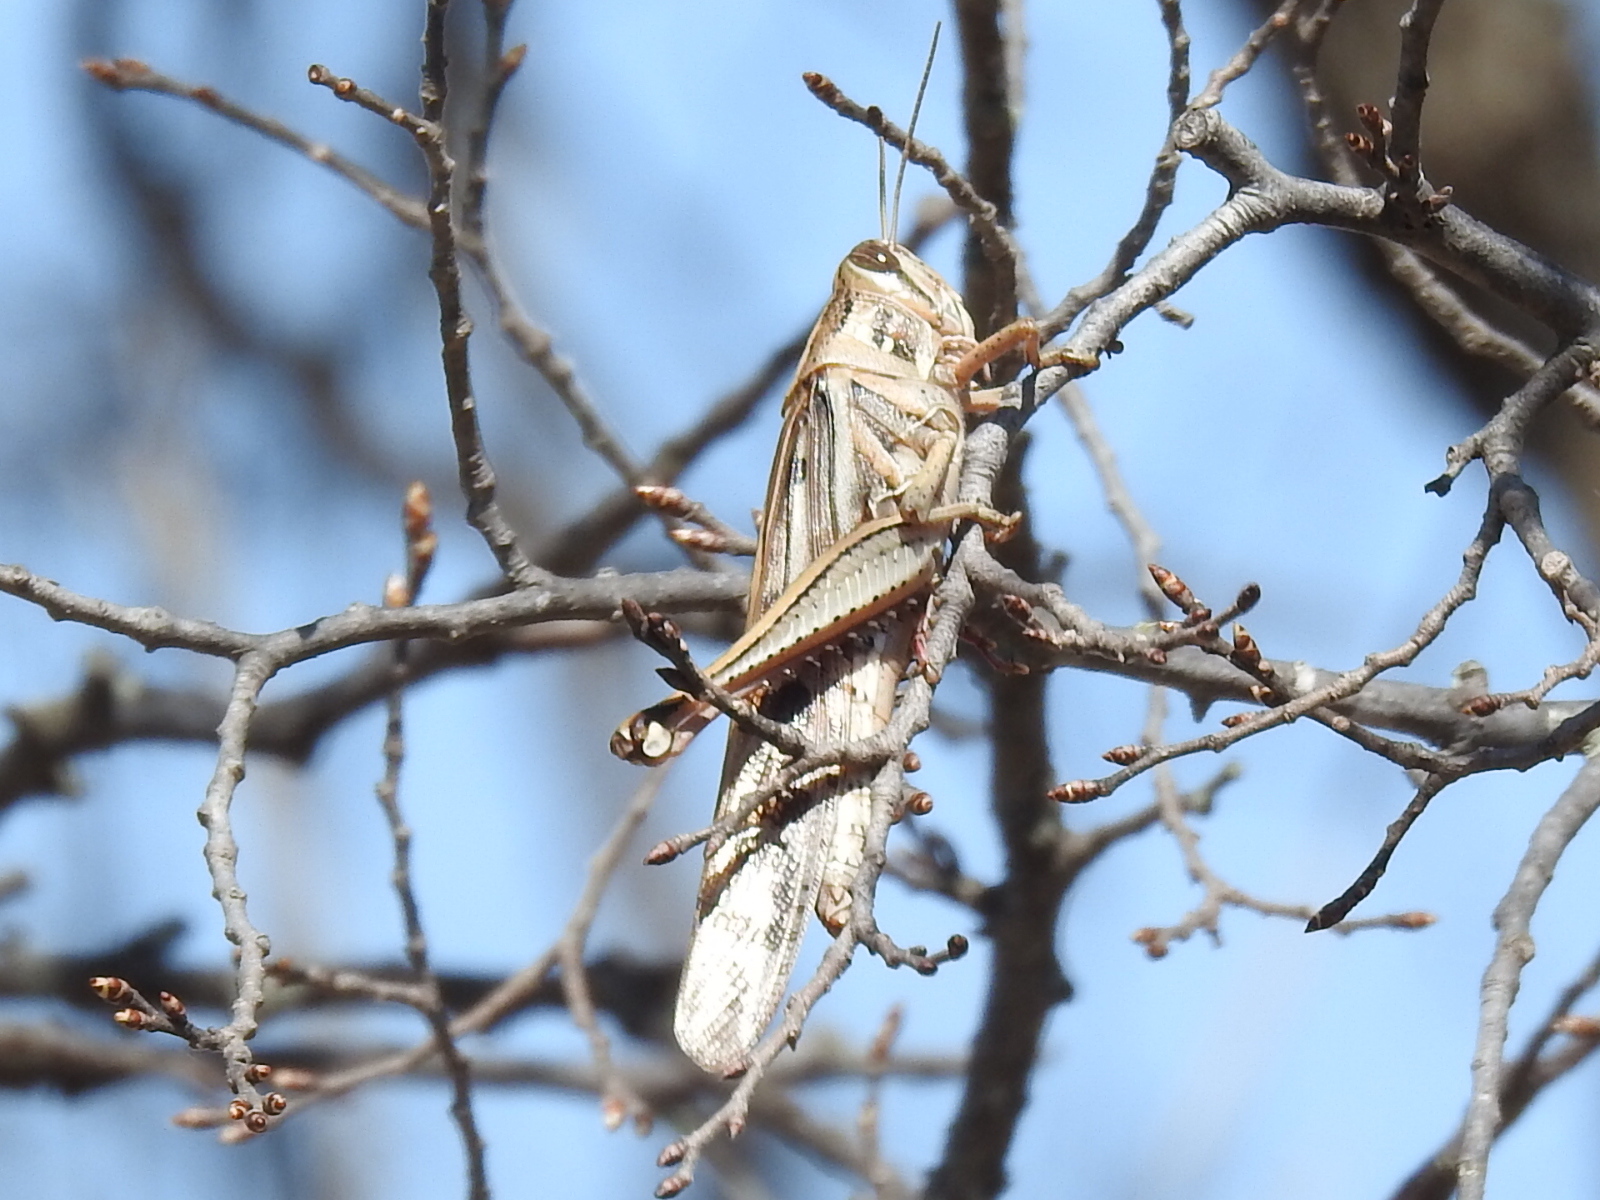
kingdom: Animalia
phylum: Arthropoda
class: Insecta
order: Orthoptera
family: Acrididae
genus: Schistocerca
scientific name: Schistocerca americana
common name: American bird locust
